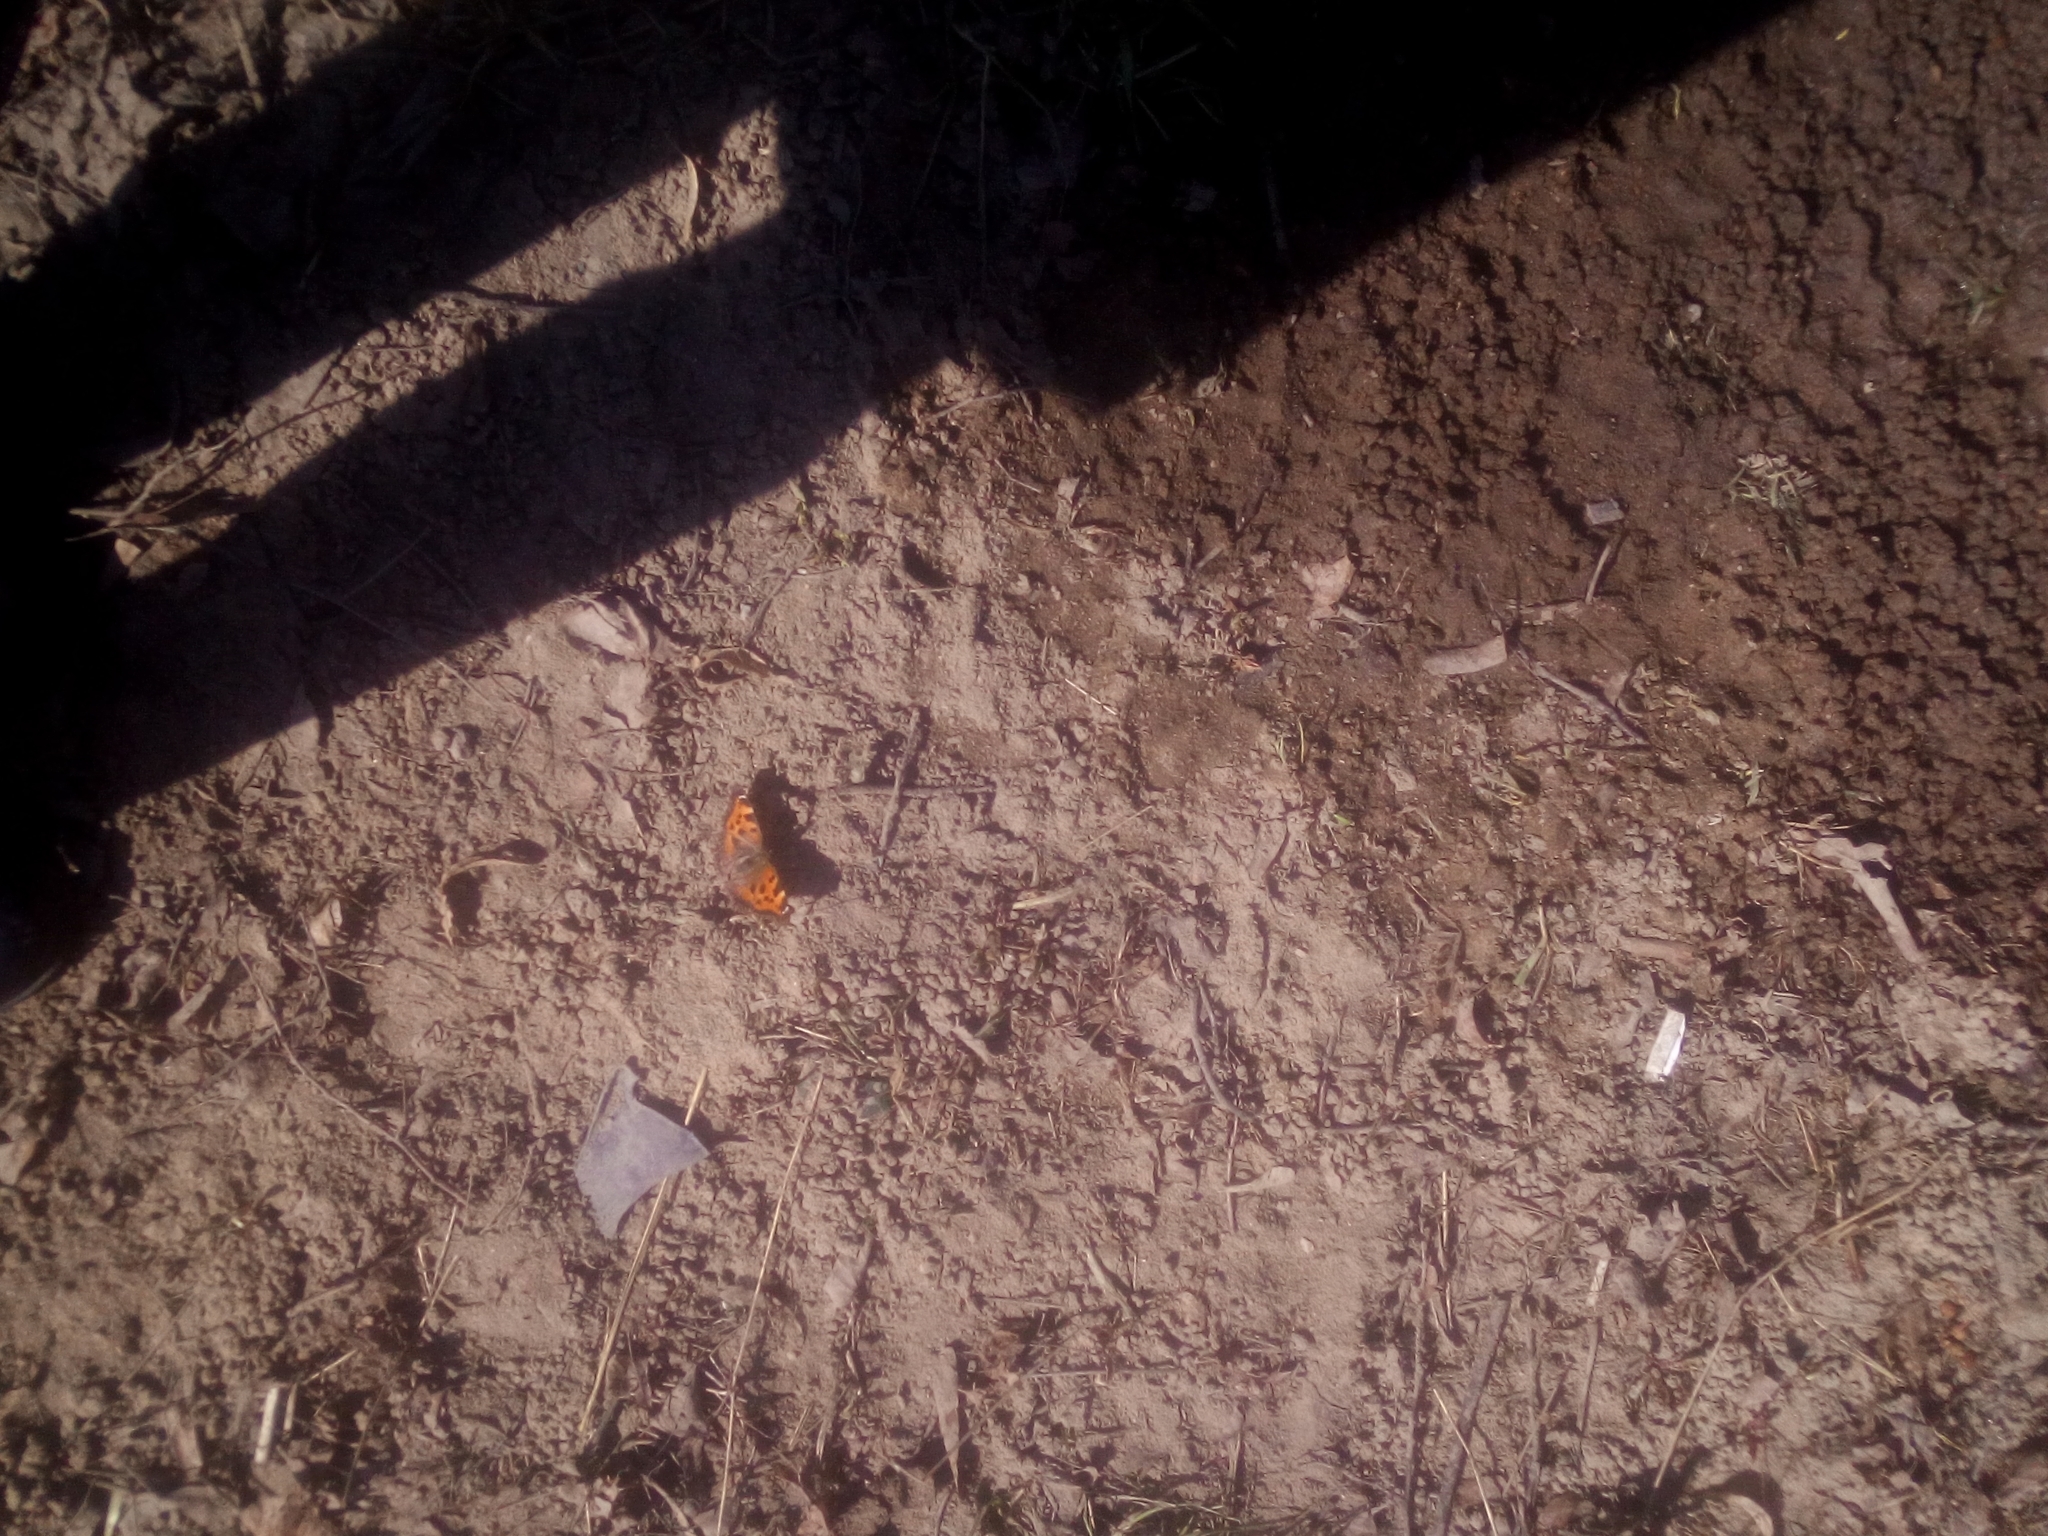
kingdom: Animalia
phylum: Arthropoda
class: Insecta
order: Lepidoptera
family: Nymphalidae
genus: Nymphalis
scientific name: Nymphalis xanthomelas
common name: Scarce tortoiseshell
